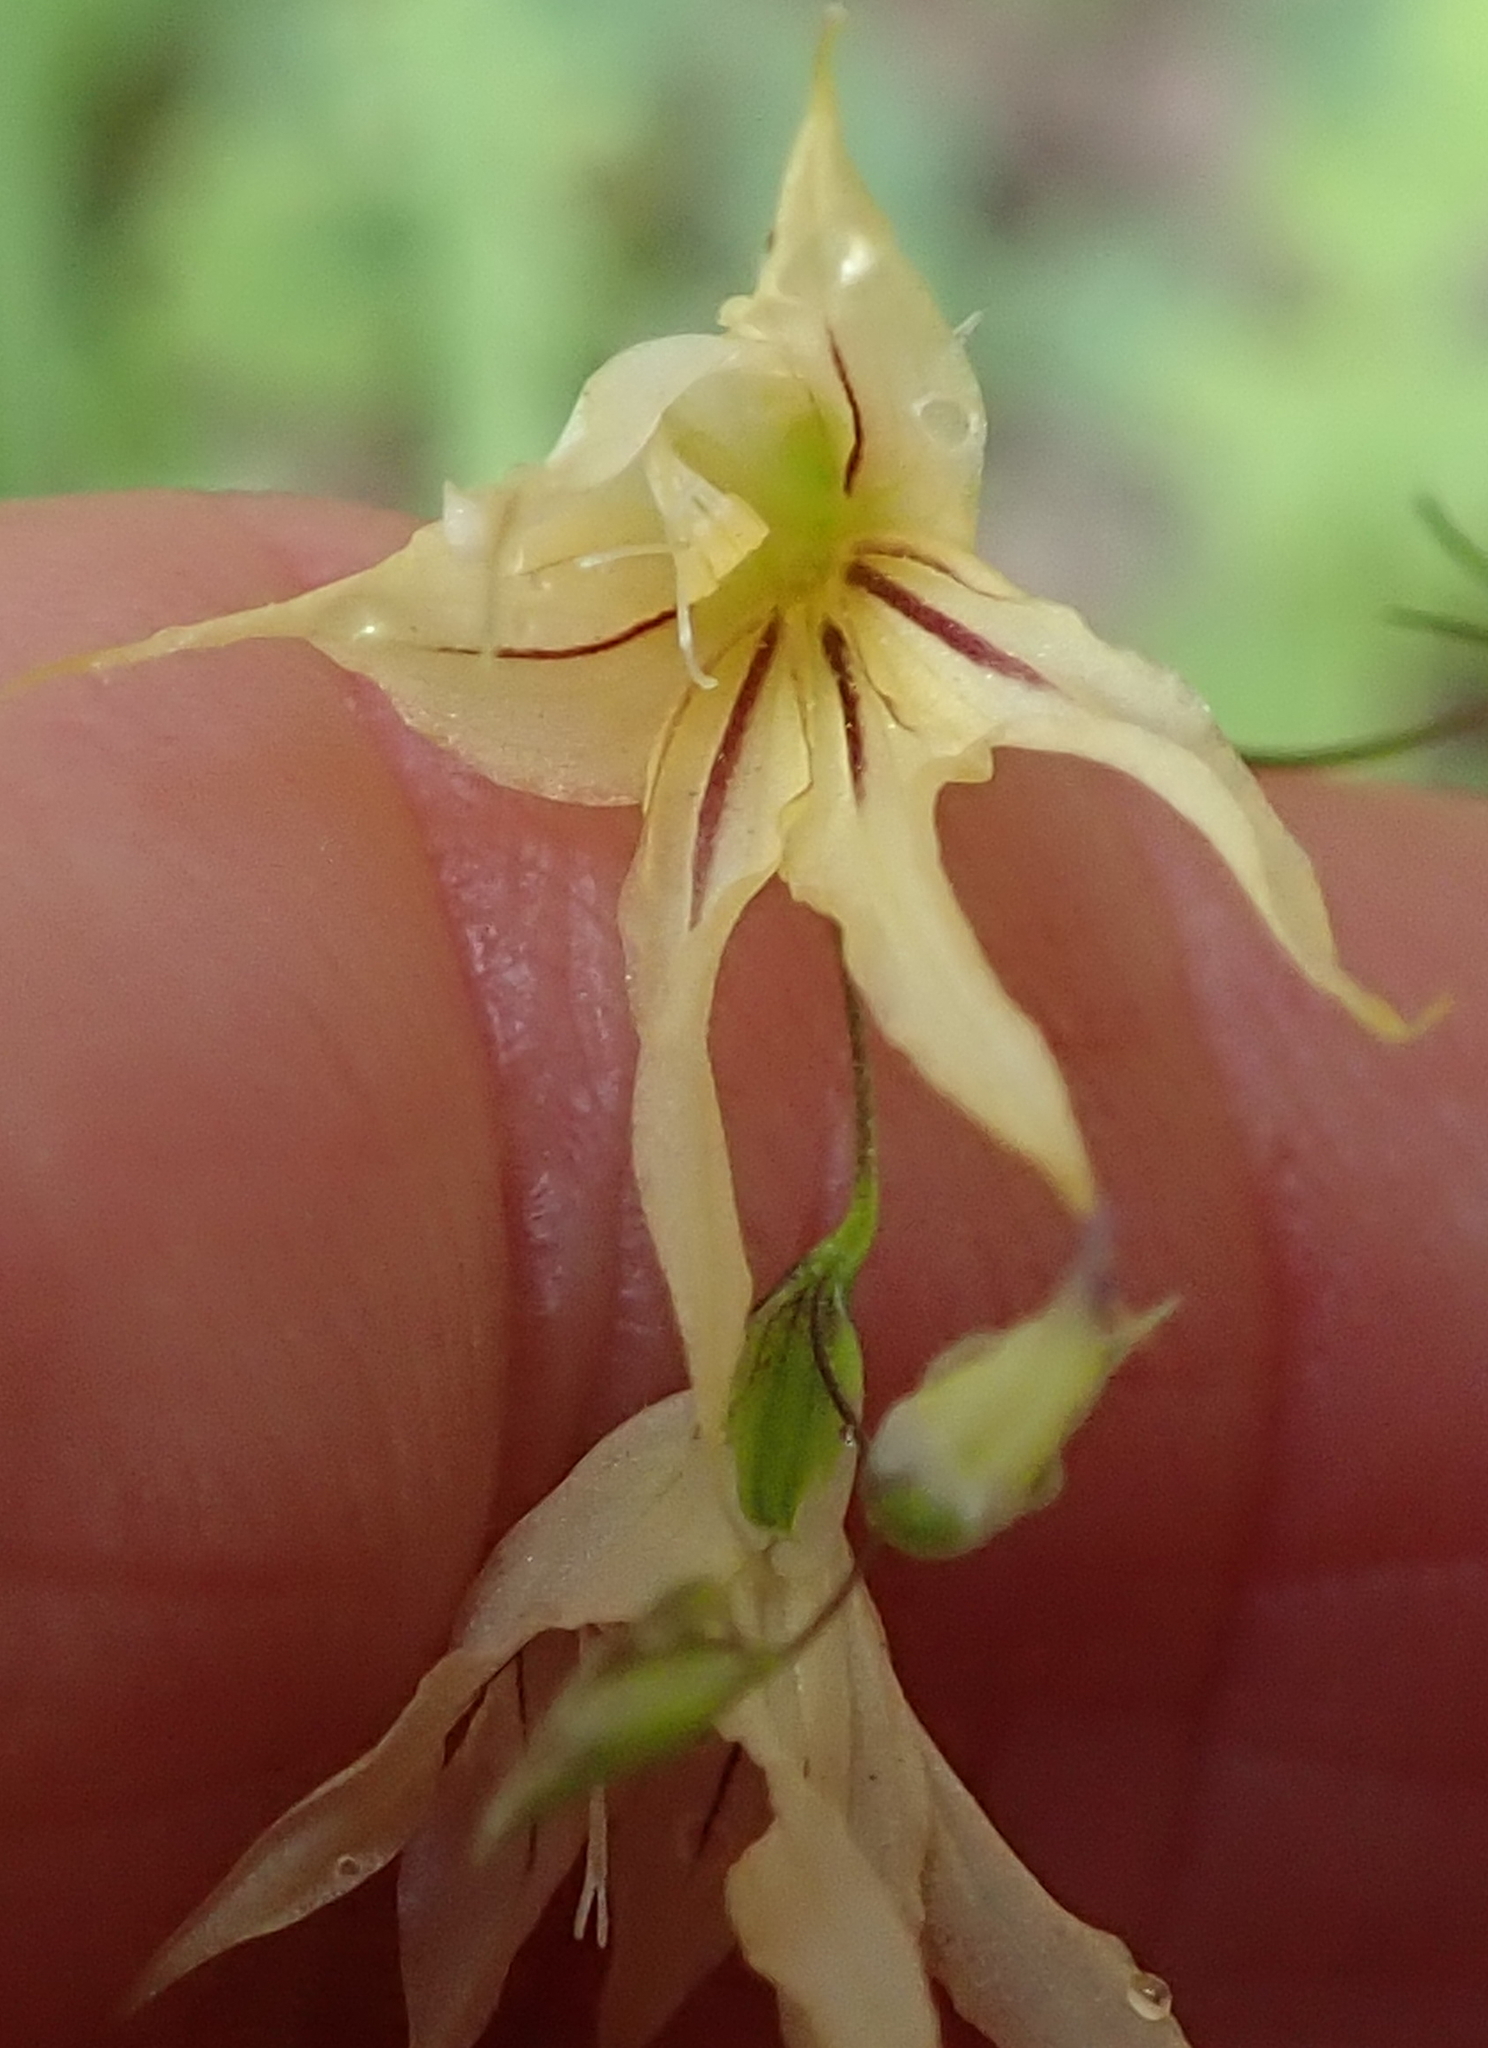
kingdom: Plantae
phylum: Tracheophyta
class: Liliopsida
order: Asparagales
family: Iridaceae
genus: Melasphaerula
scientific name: Melasphaerula graminea
